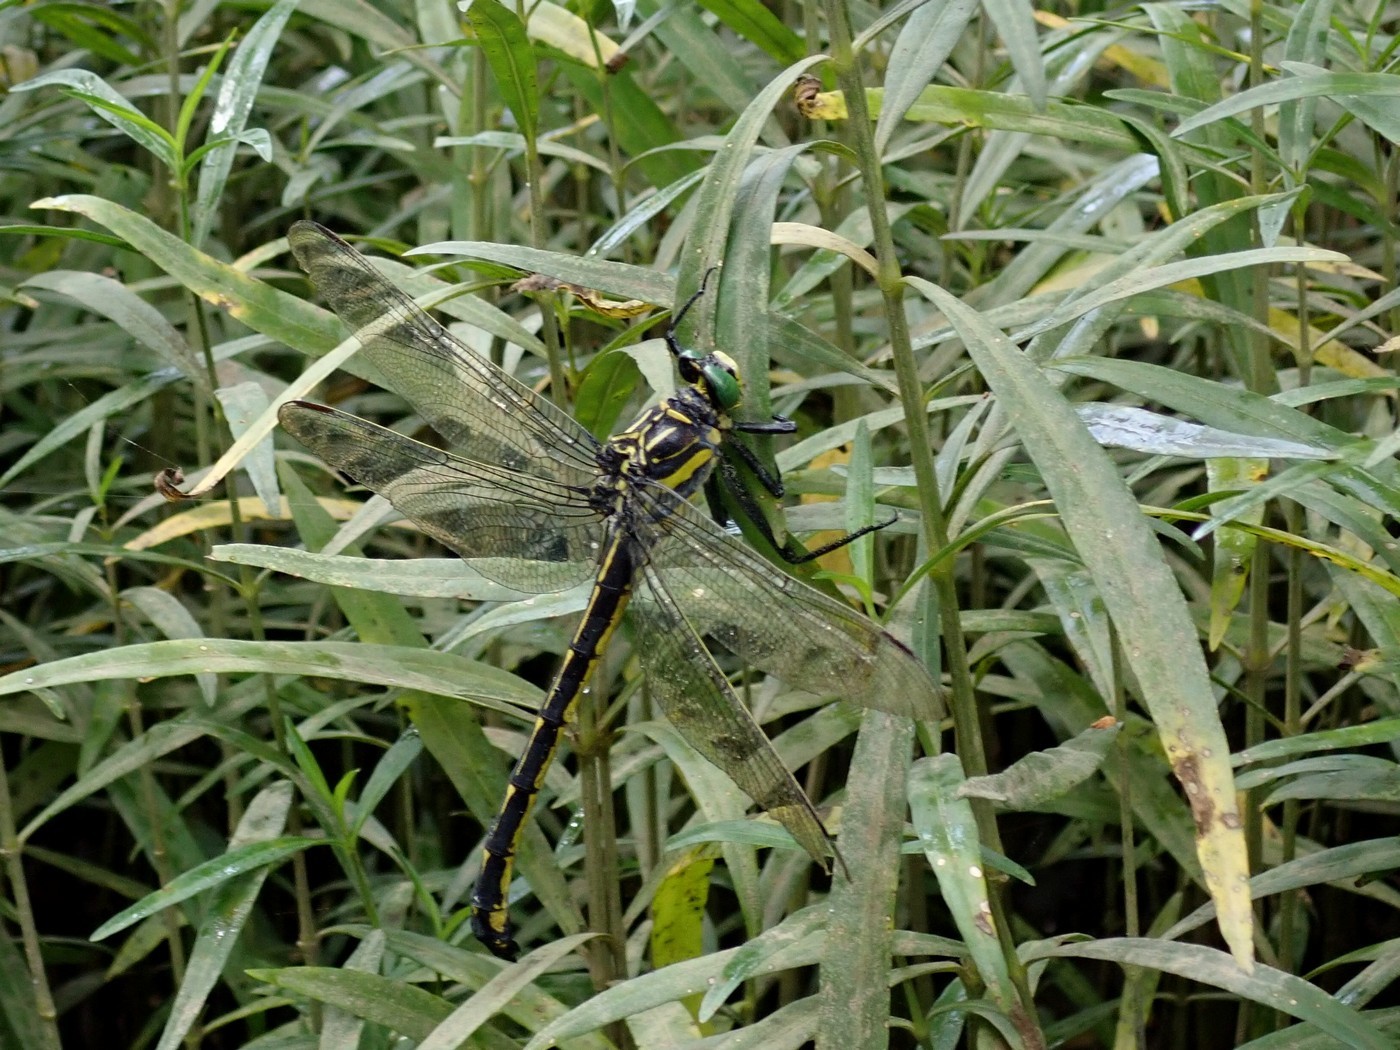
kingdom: Animalia
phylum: Arthropoda
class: Insecta
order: Odonata
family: Gomphidae
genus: Hagenius
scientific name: Hagenius brevistylus
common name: Dragonhunter
